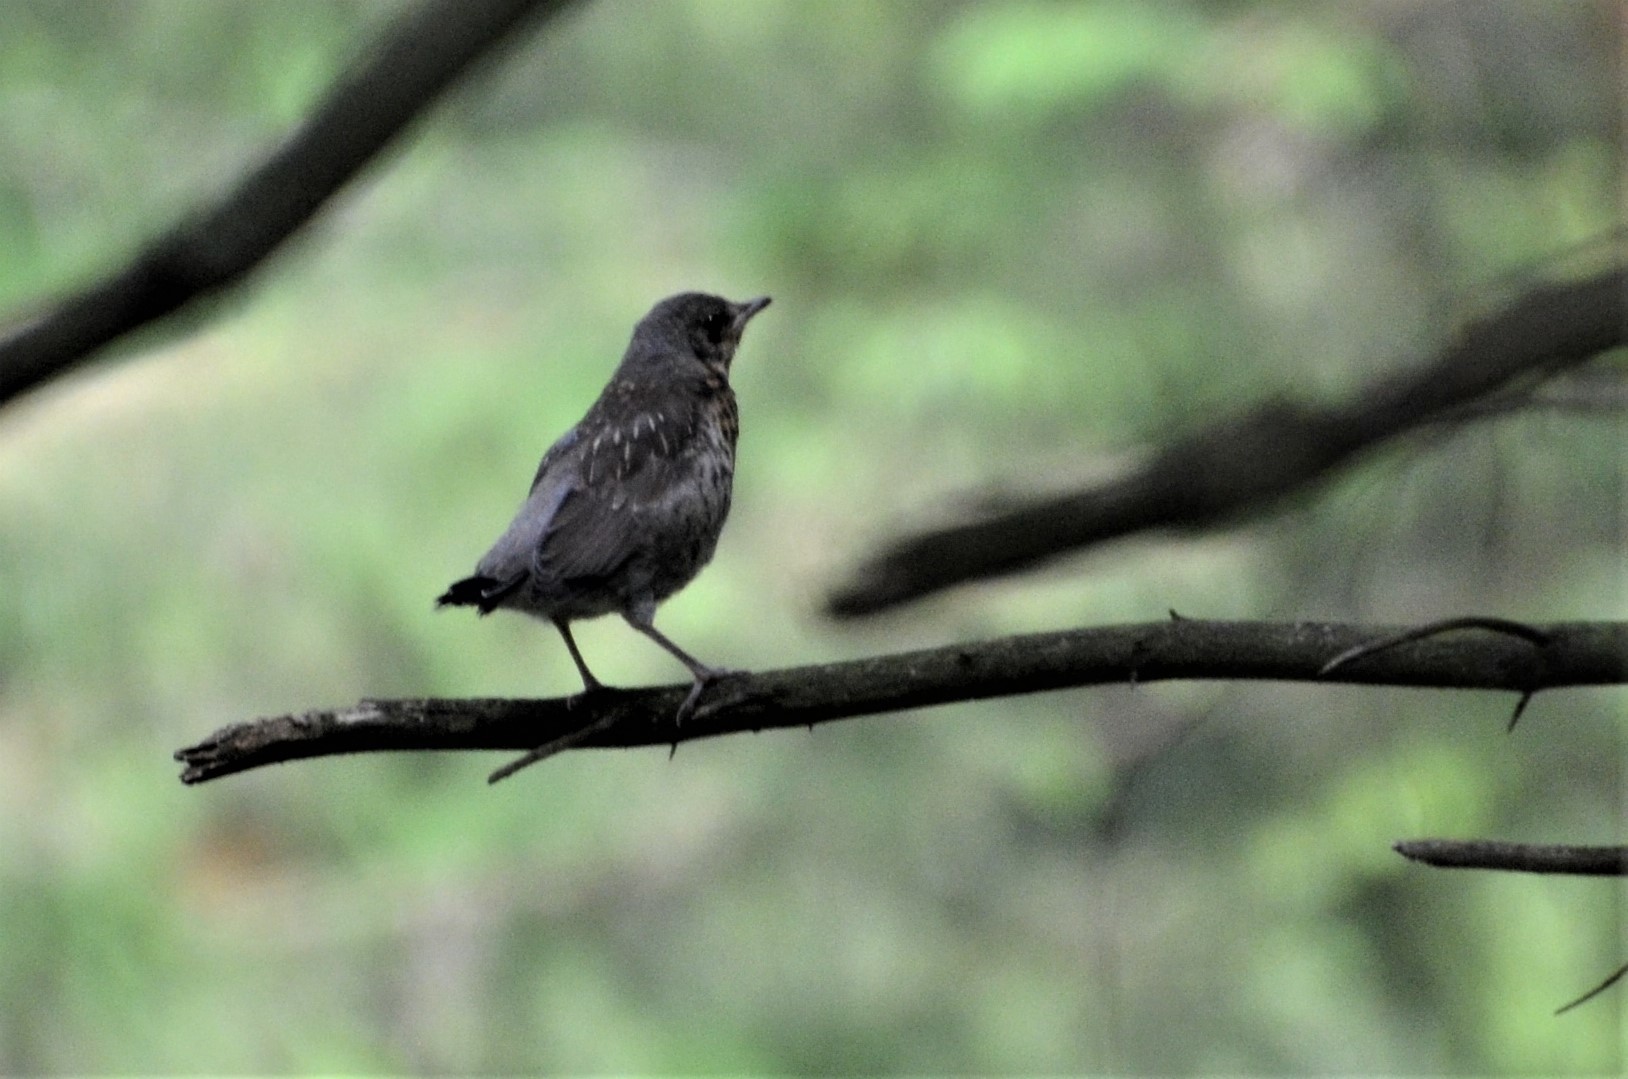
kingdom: Animalia
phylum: Chordata
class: Aves
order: Passeriformes
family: Turdidae
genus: Turdus
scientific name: Turdus pilaris
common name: Fieldfare
